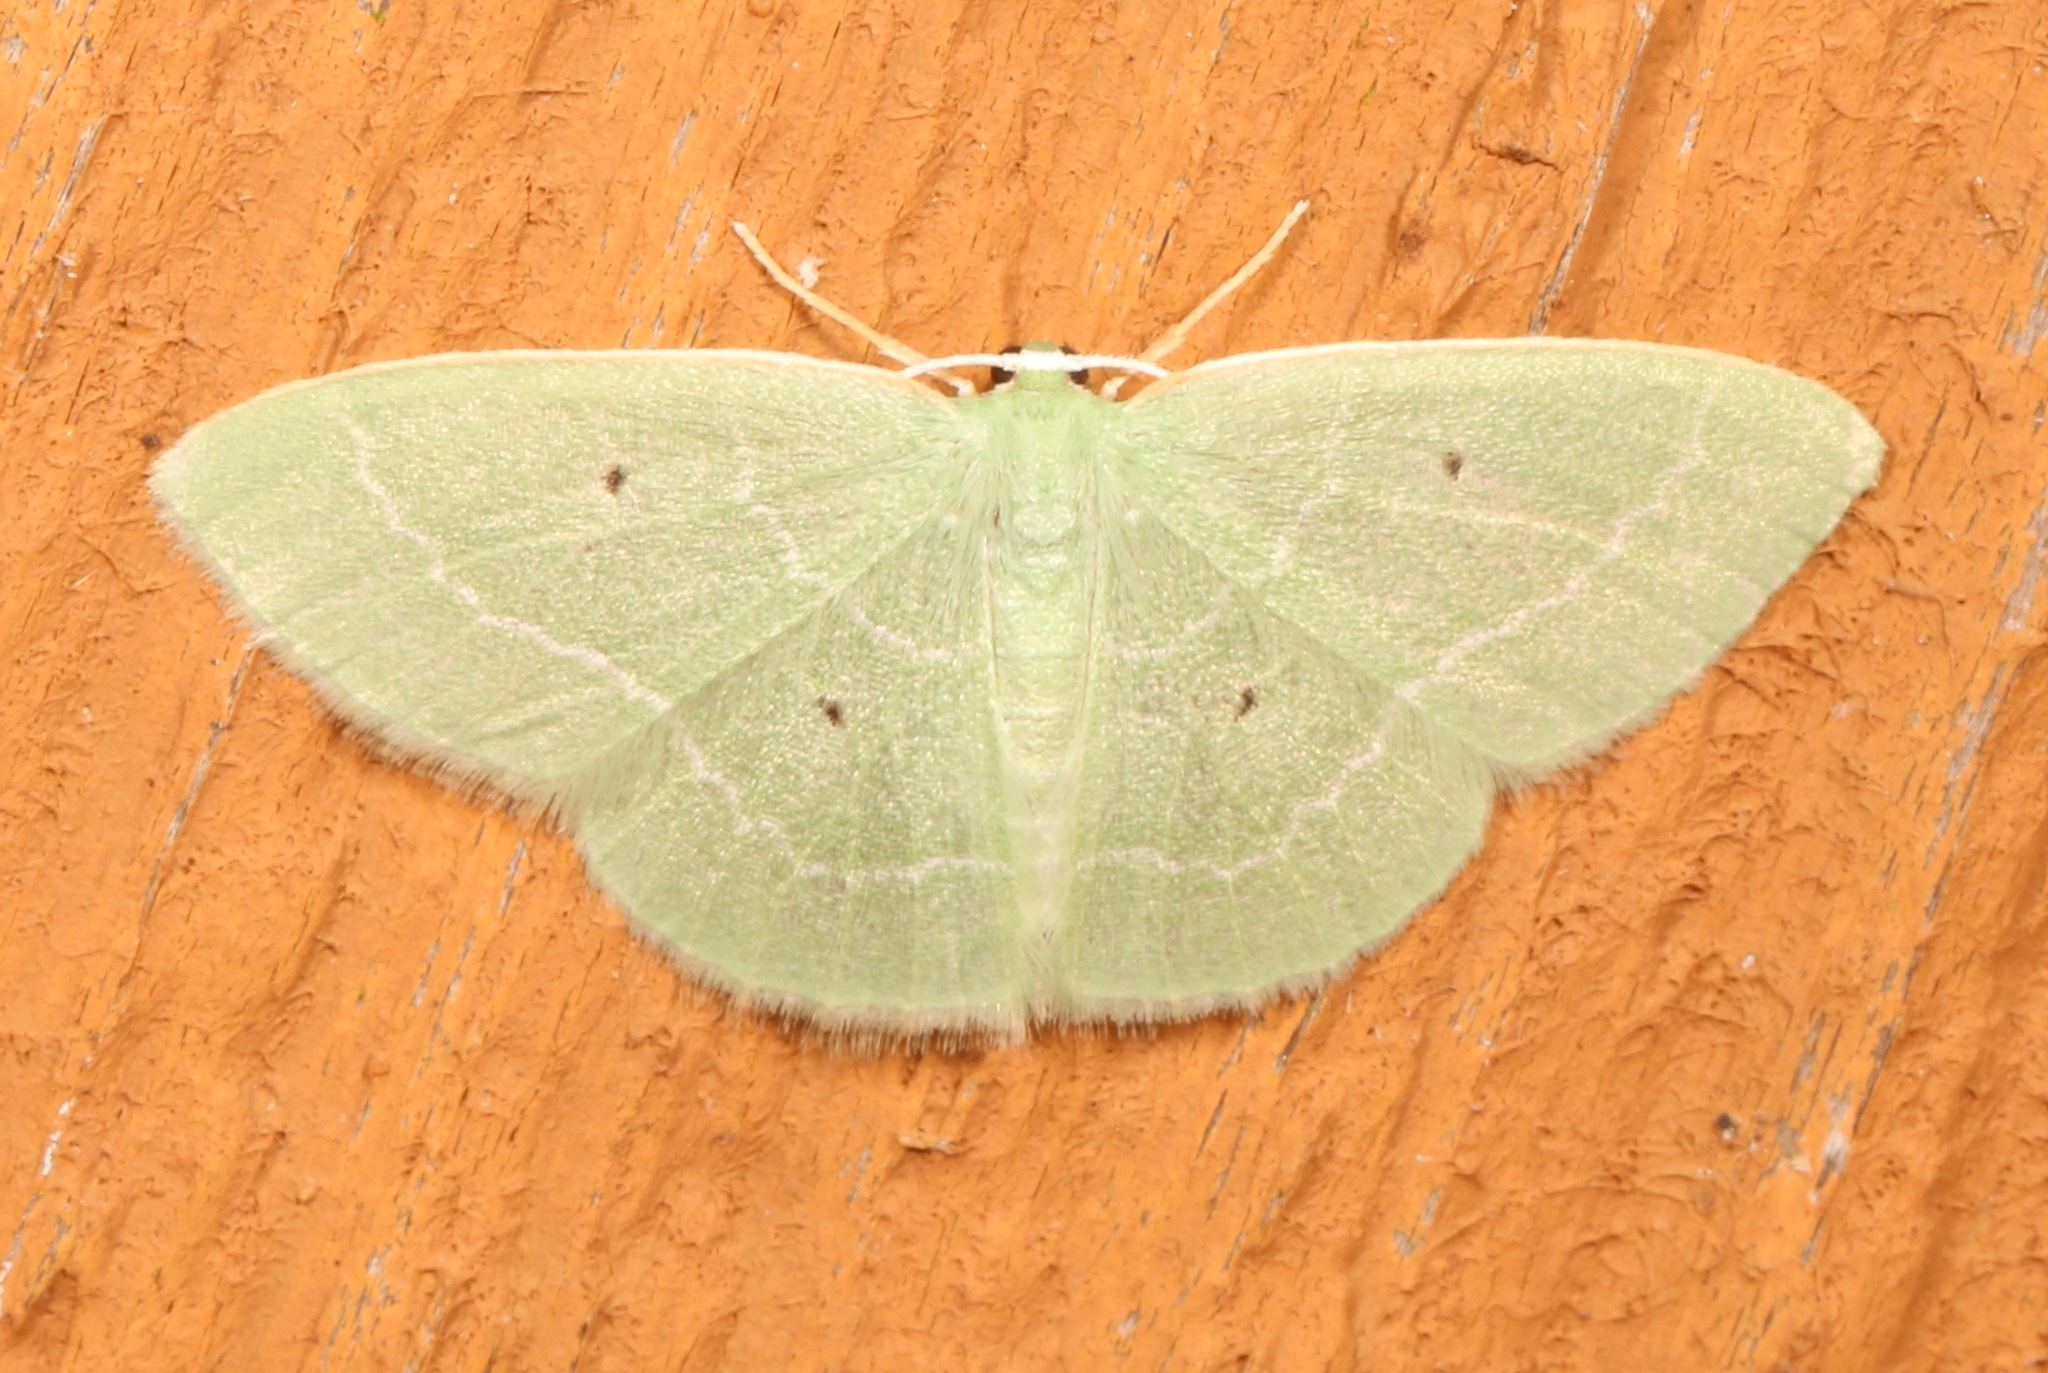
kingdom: Animalia
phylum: Arthropoda
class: Insecta
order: Lepidoptera
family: Geometridae
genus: Nemoria
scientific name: Nemoria elfa
